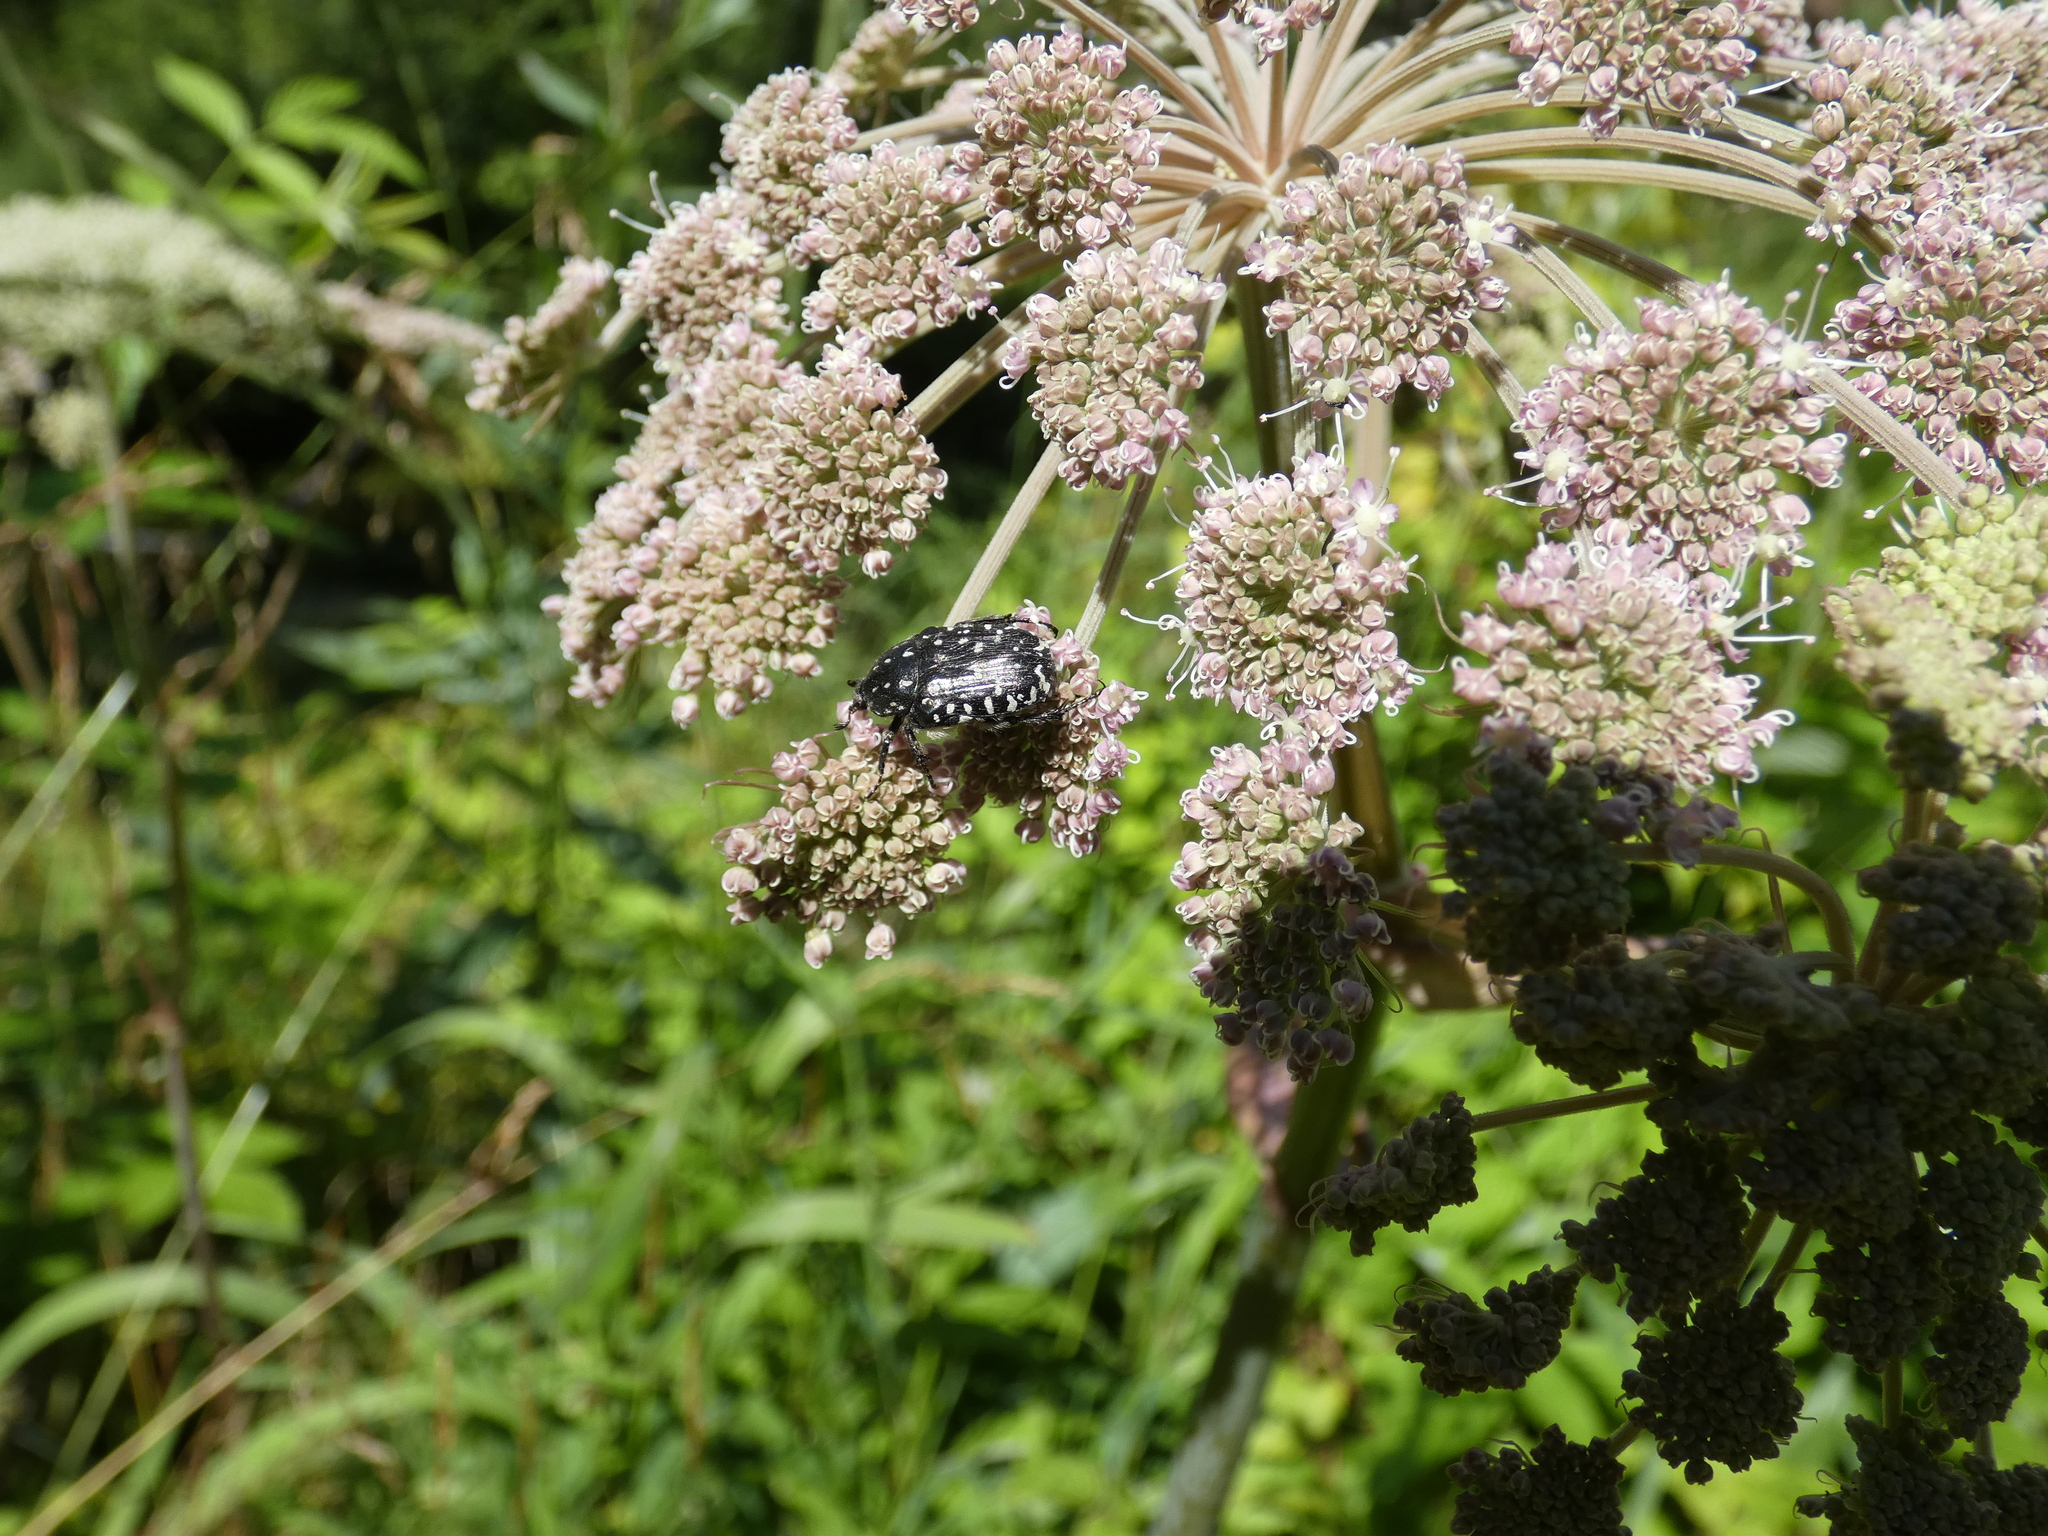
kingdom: Animalia
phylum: Arthropoda
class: Insecta
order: Coleoptera
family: Scarabaeidae
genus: Oxythyrea
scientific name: Oxythyrea funesta
